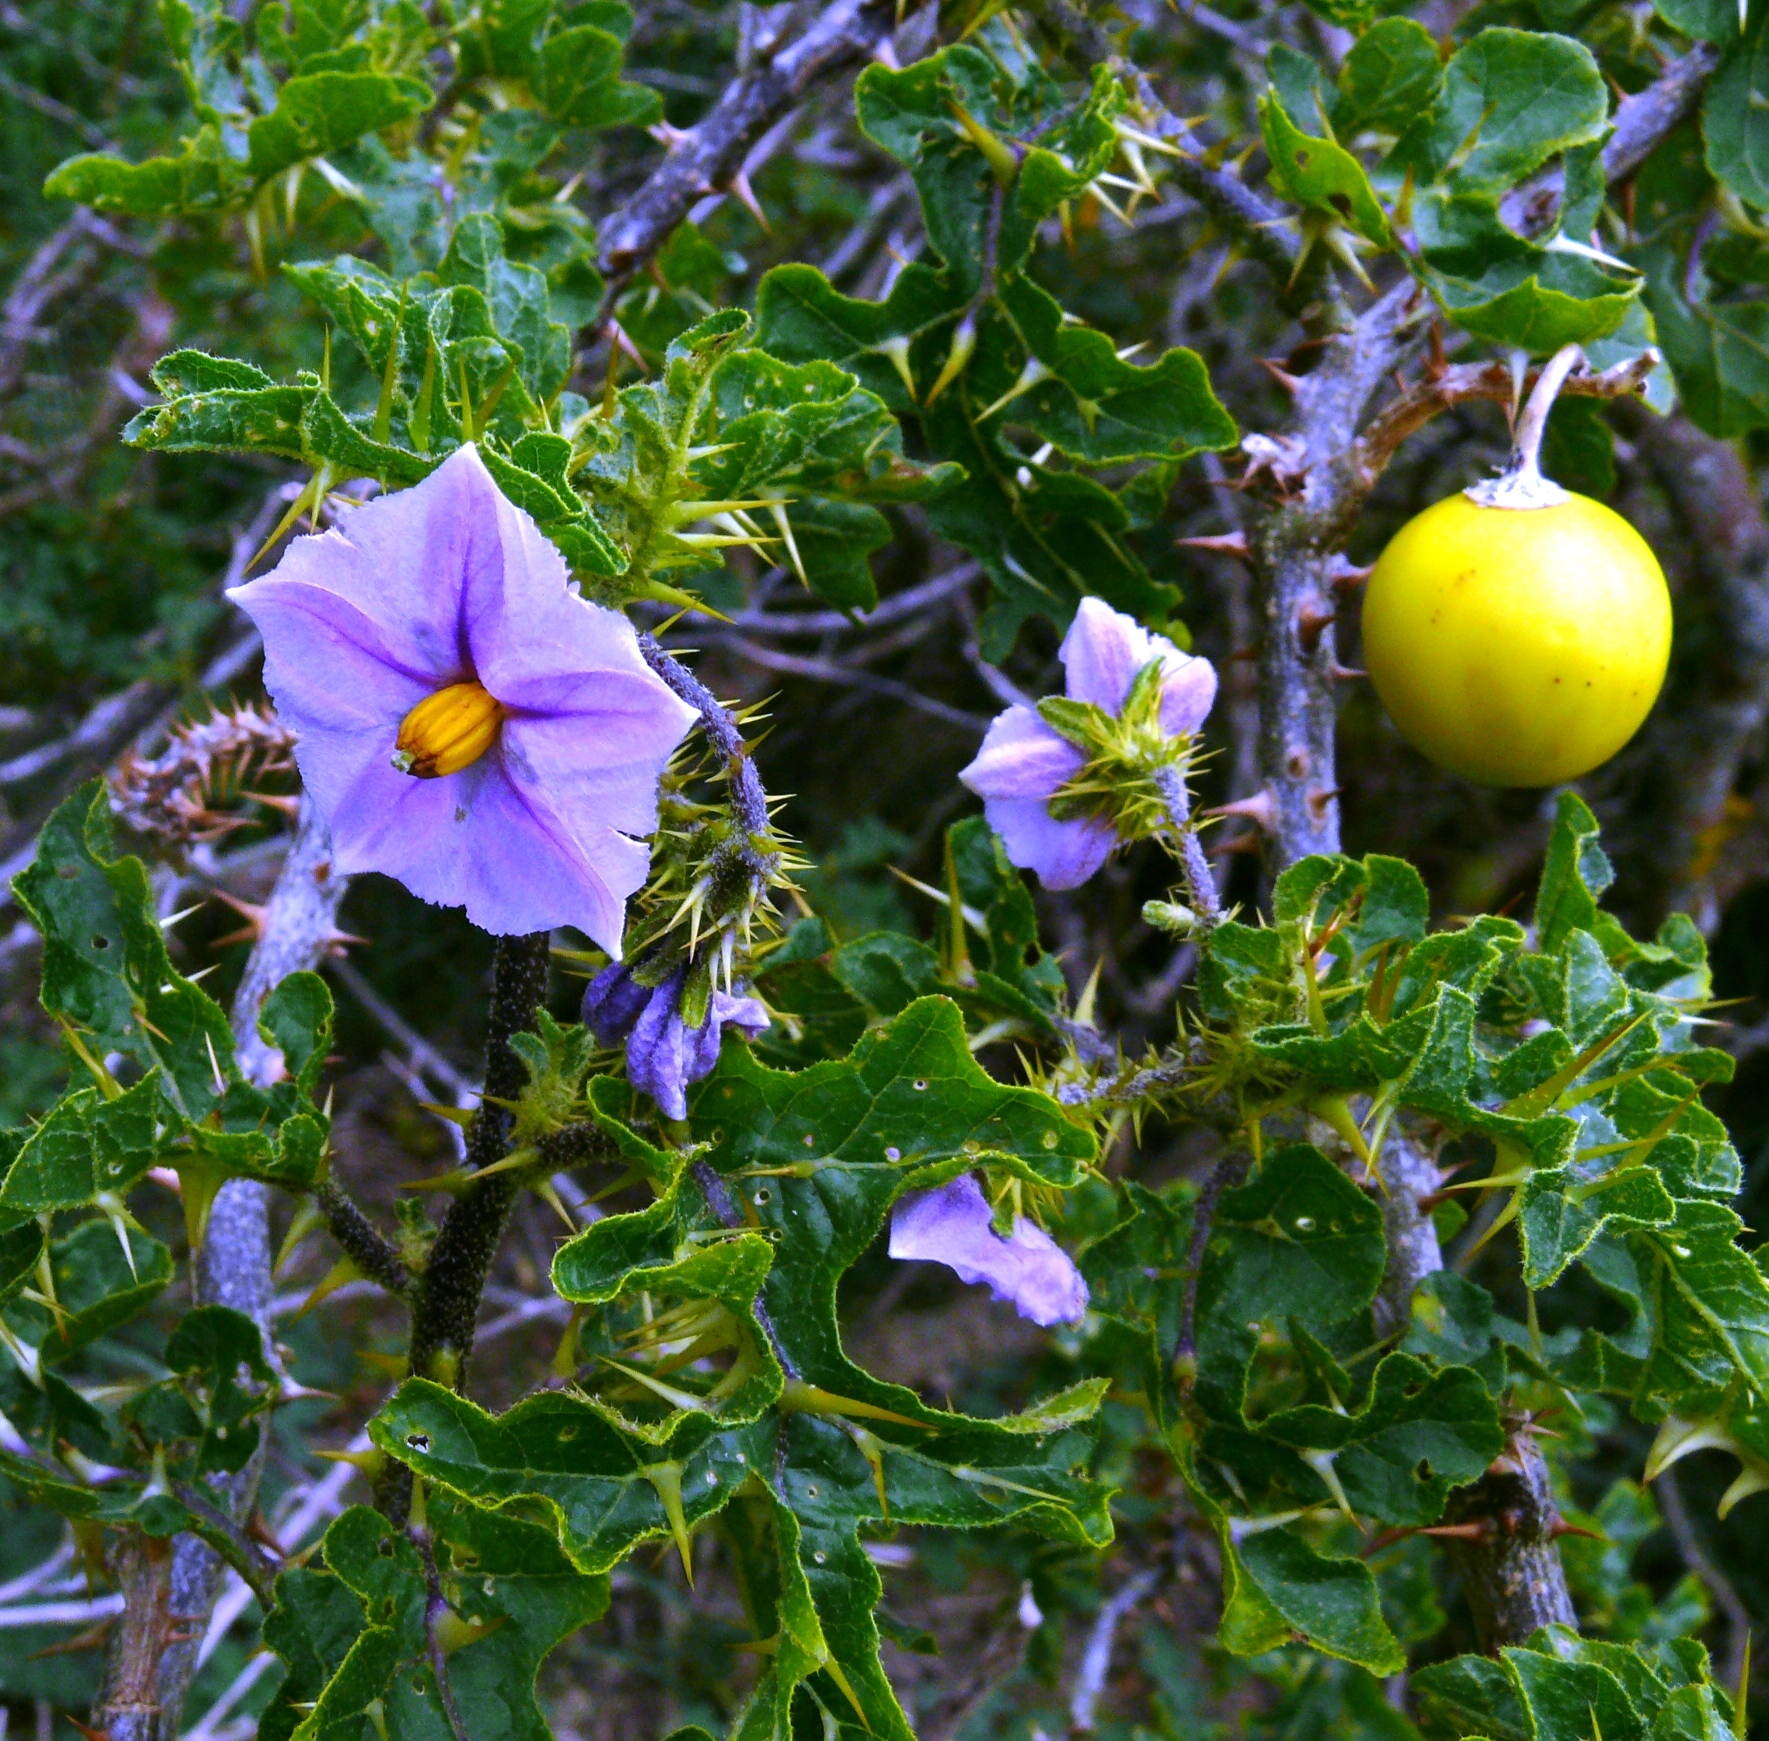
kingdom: Plantae
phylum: Tracheophyta
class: Magnoliopsida
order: Solanales
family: Solanaceae
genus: Solanum
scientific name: Solanum linnaeanum
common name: Nightshade
